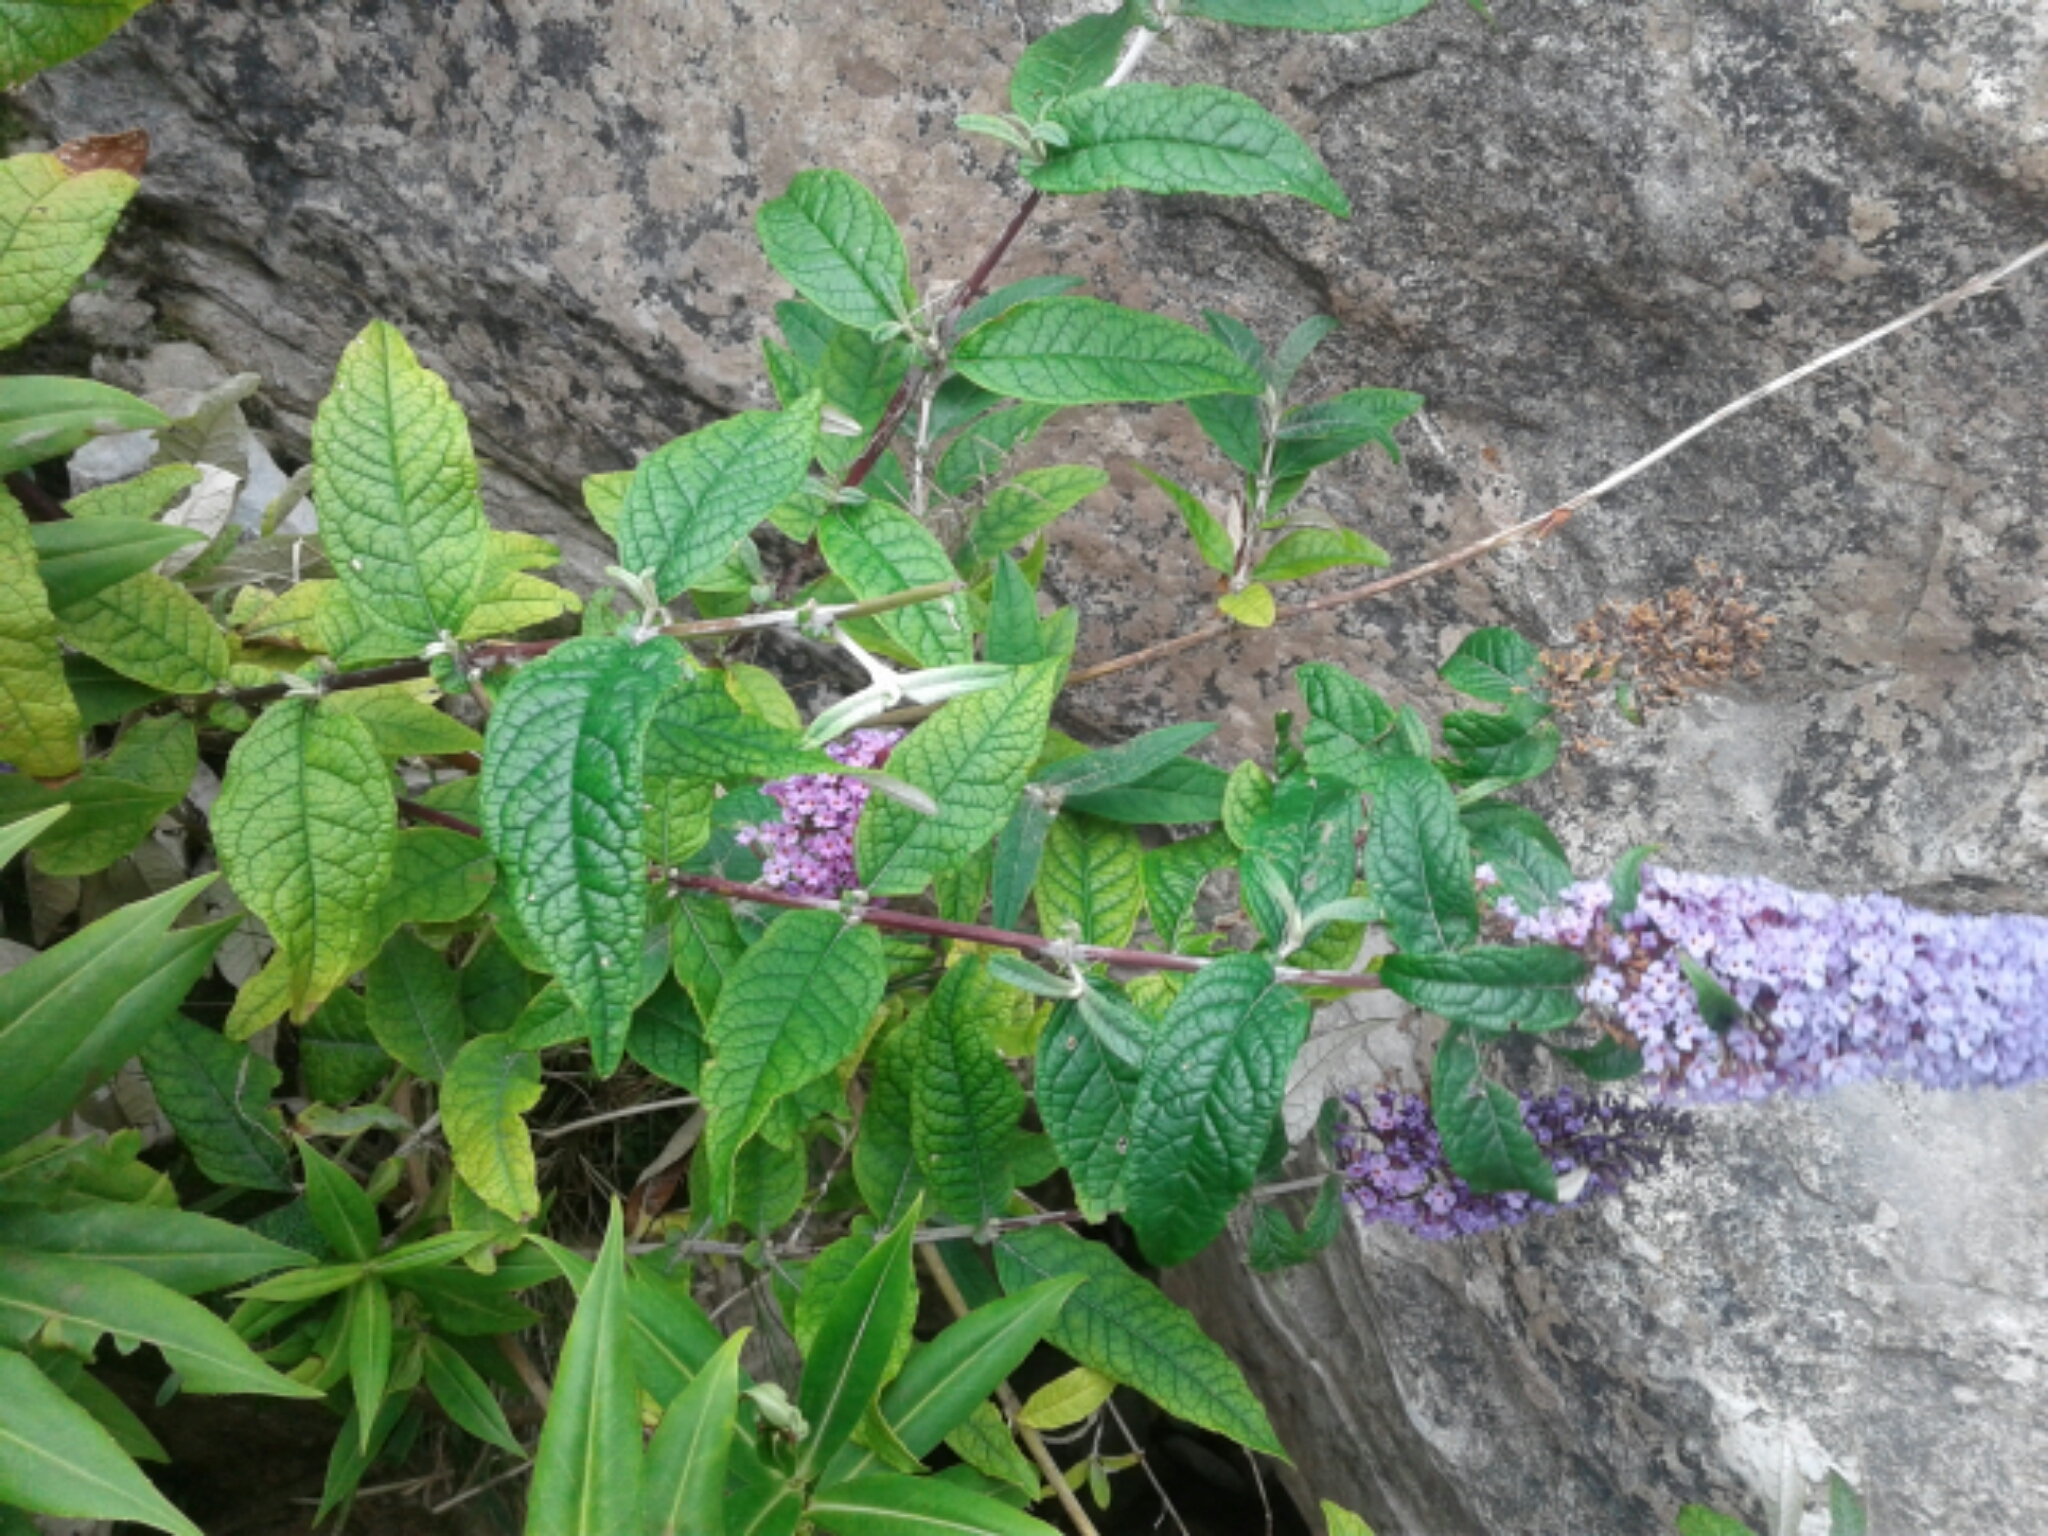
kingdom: Plantae
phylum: Tracheophyta
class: Magnoliopsida
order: Lamiales
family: Scrophulariaceae
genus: Buddleja
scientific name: Buddleja
